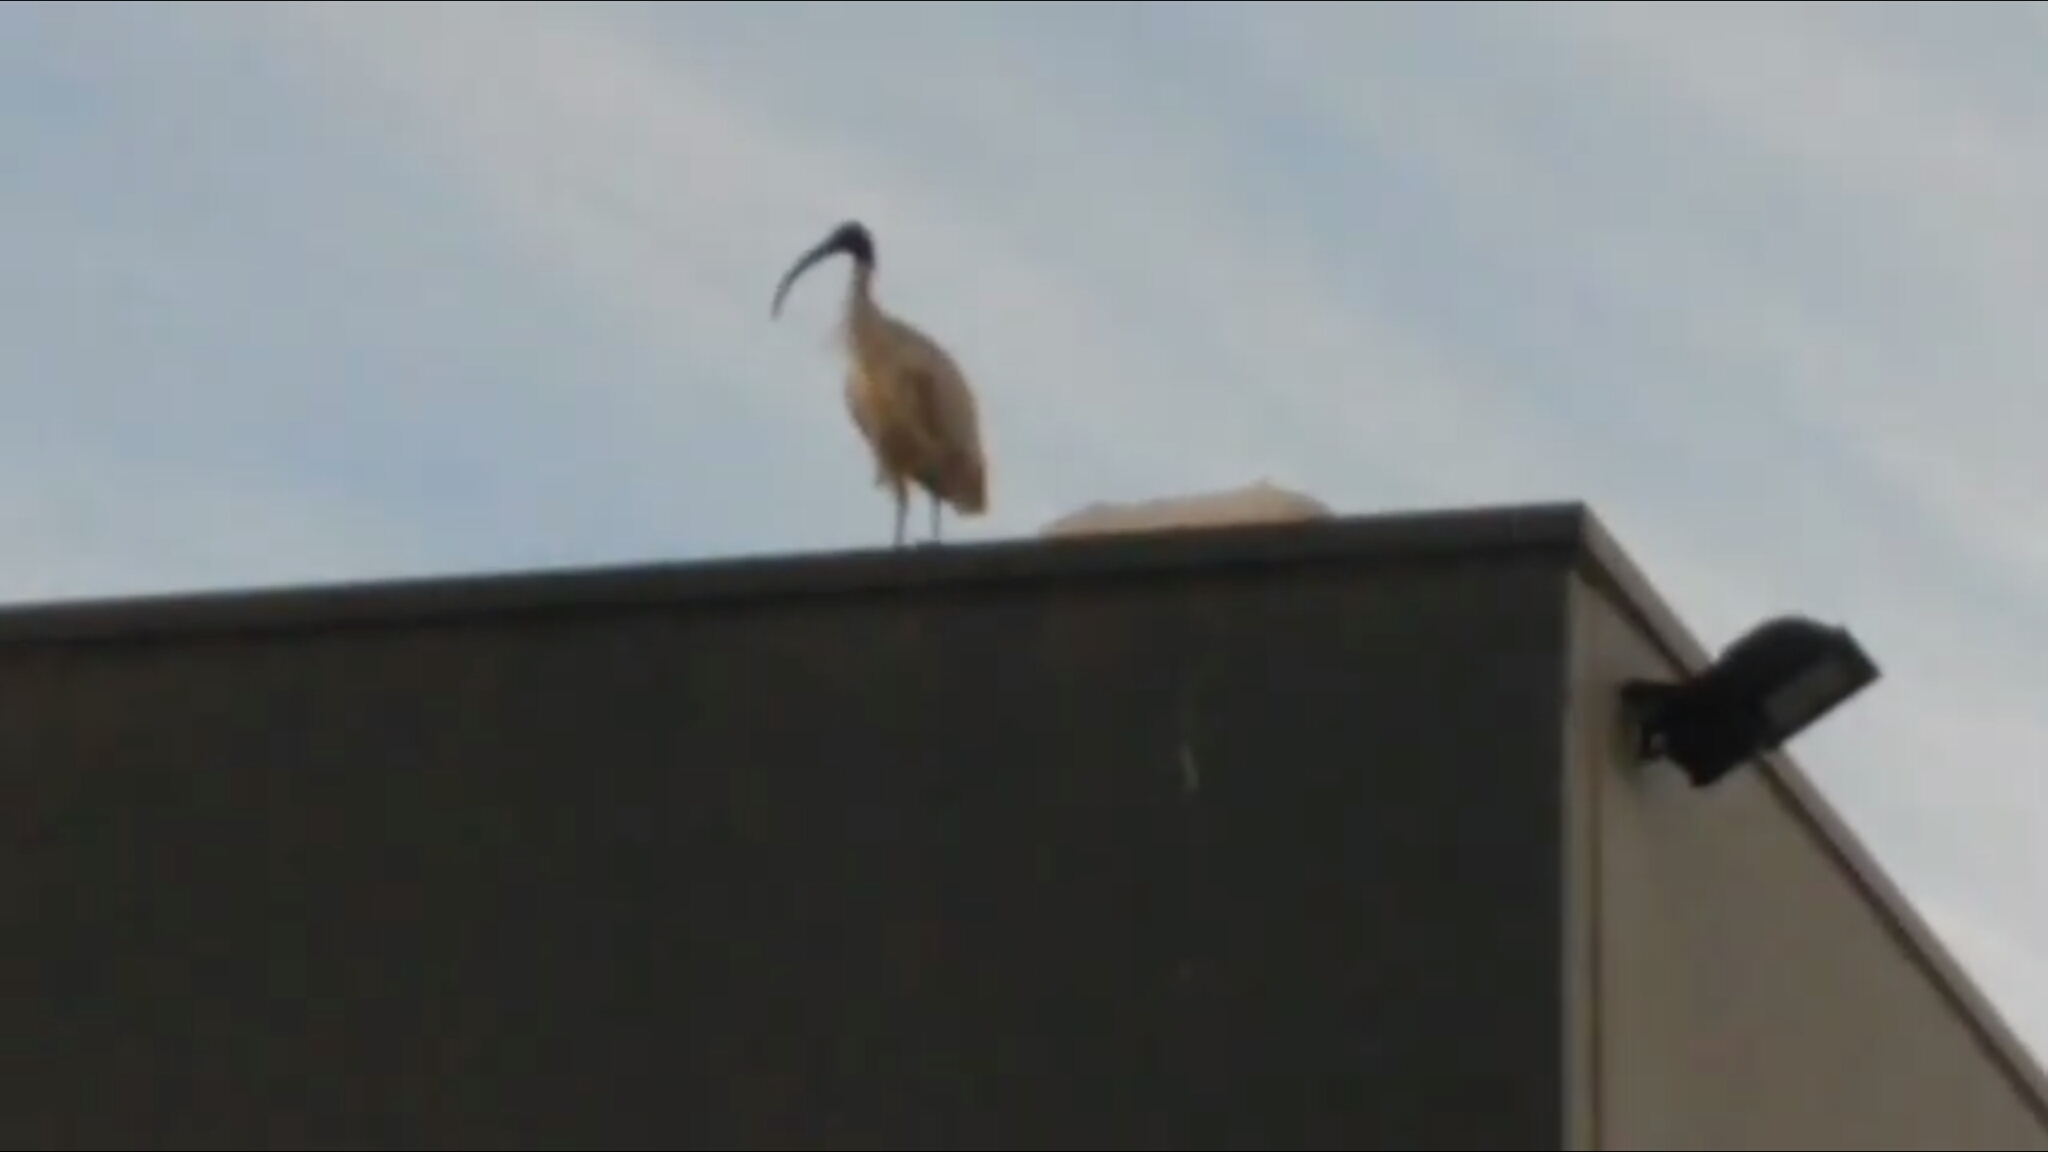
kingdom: Animalia
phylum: Chordata
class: Aves
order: Pelecaniformes
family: Threskiornithidae
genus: Threskiornis
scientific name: Threskiornis molucca
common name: Australian white ibis
